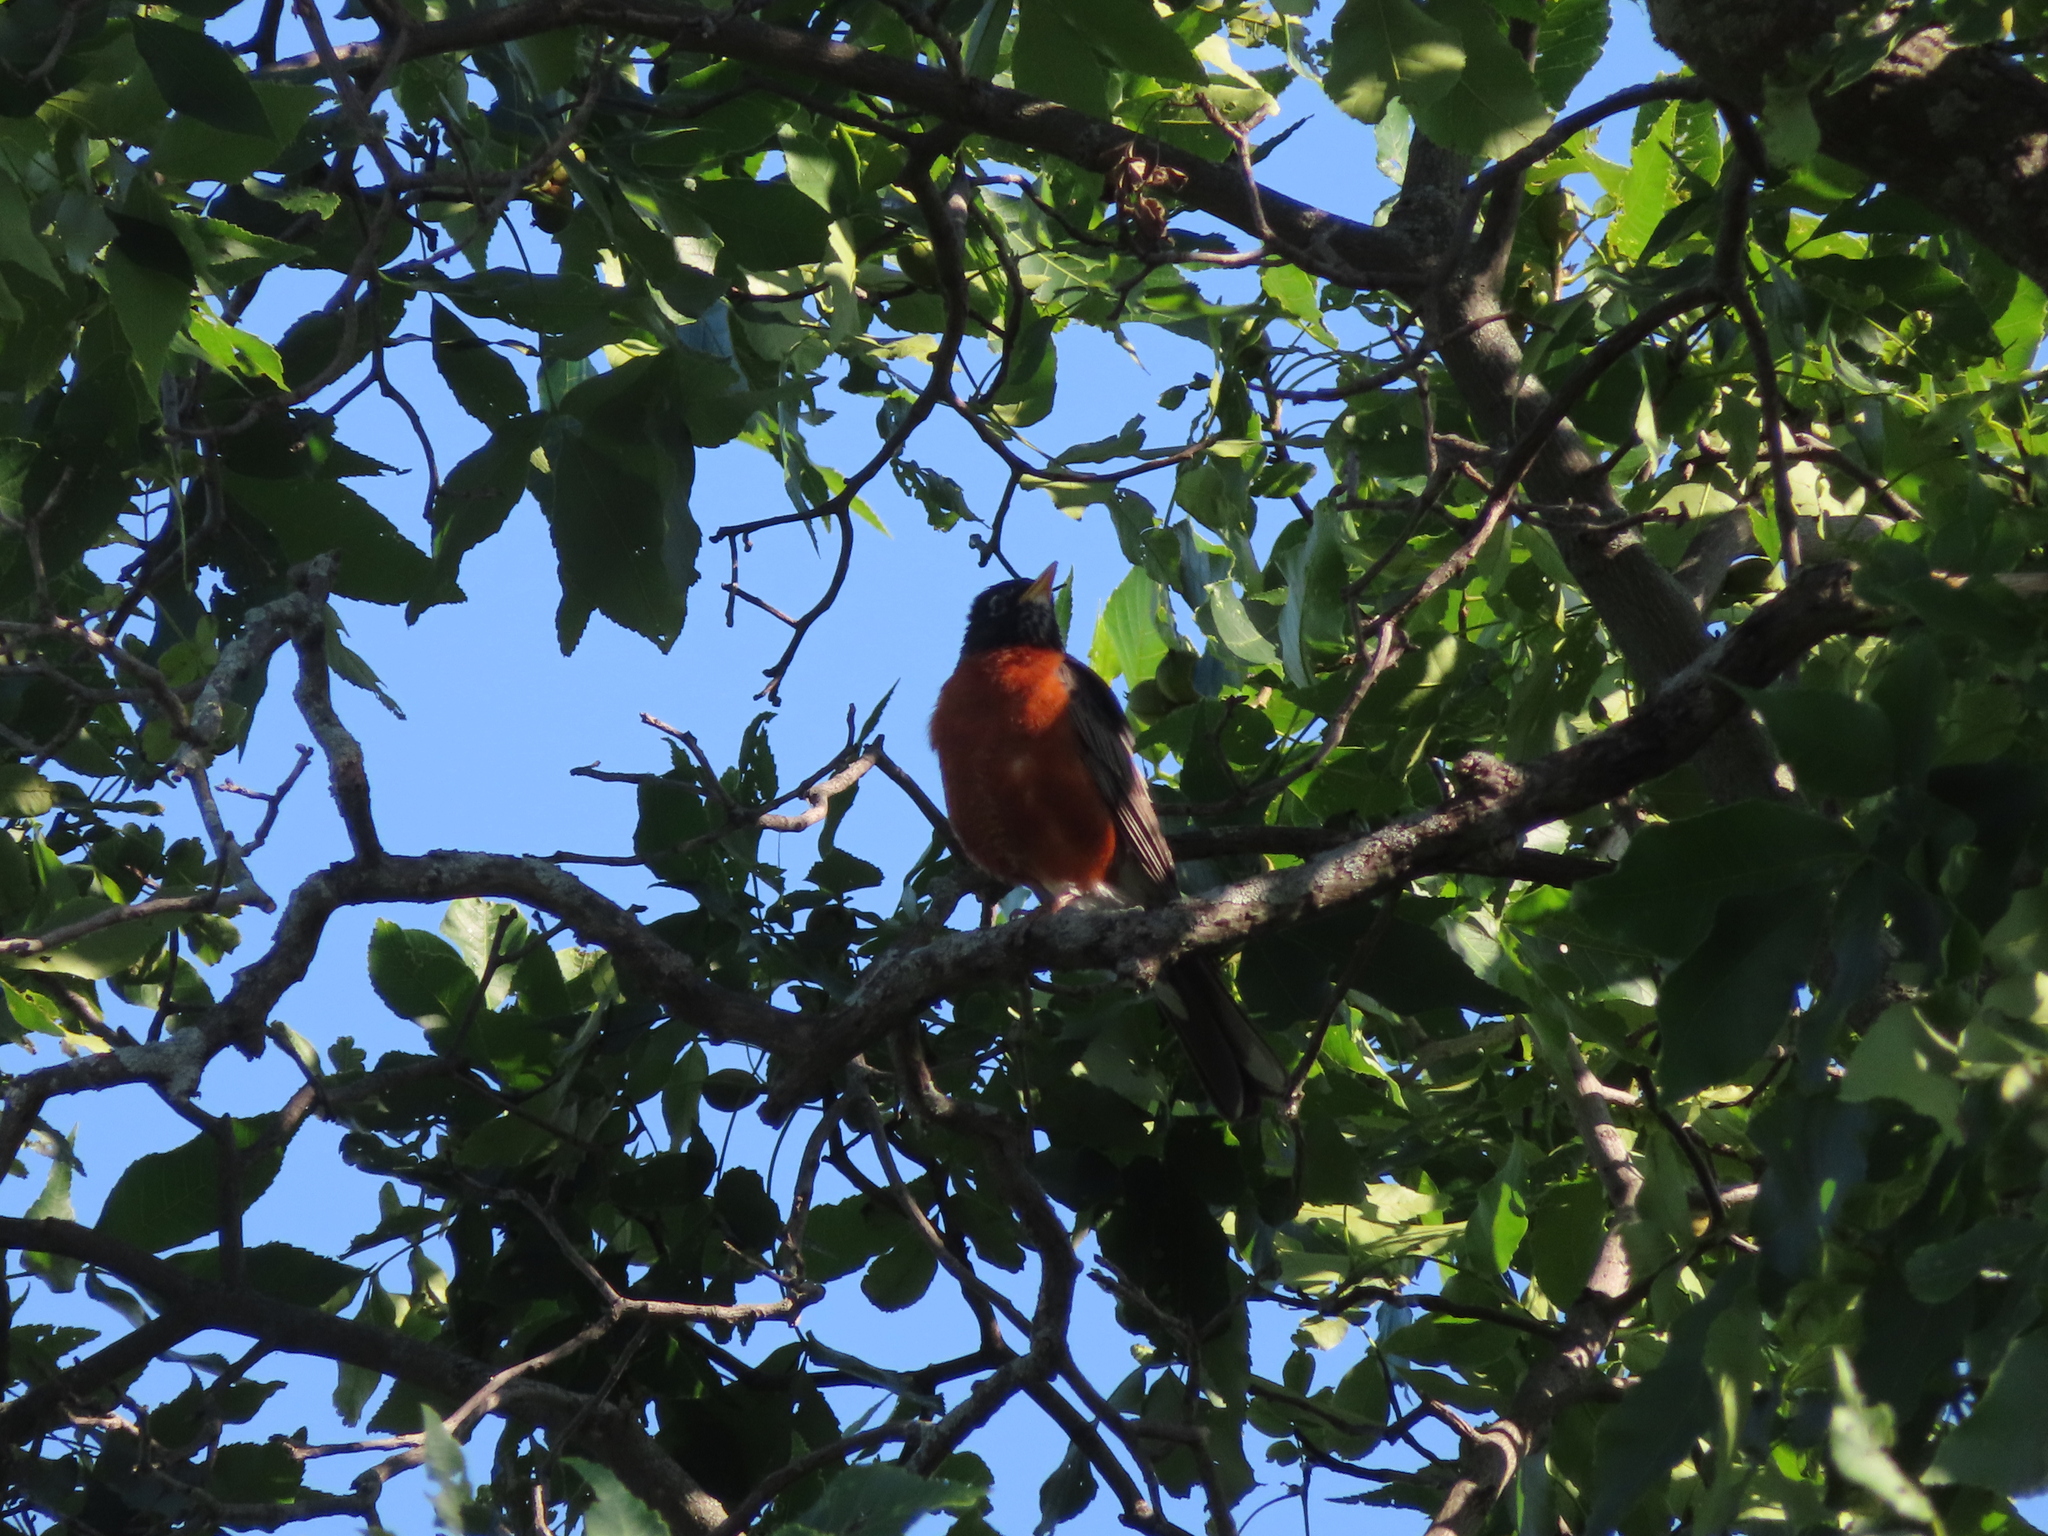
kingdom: Animalia
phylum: Chordata
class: Aves
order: Passeriformes
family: Turdidae
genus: Turdus
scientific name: Turdus migratorius
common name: American robin
